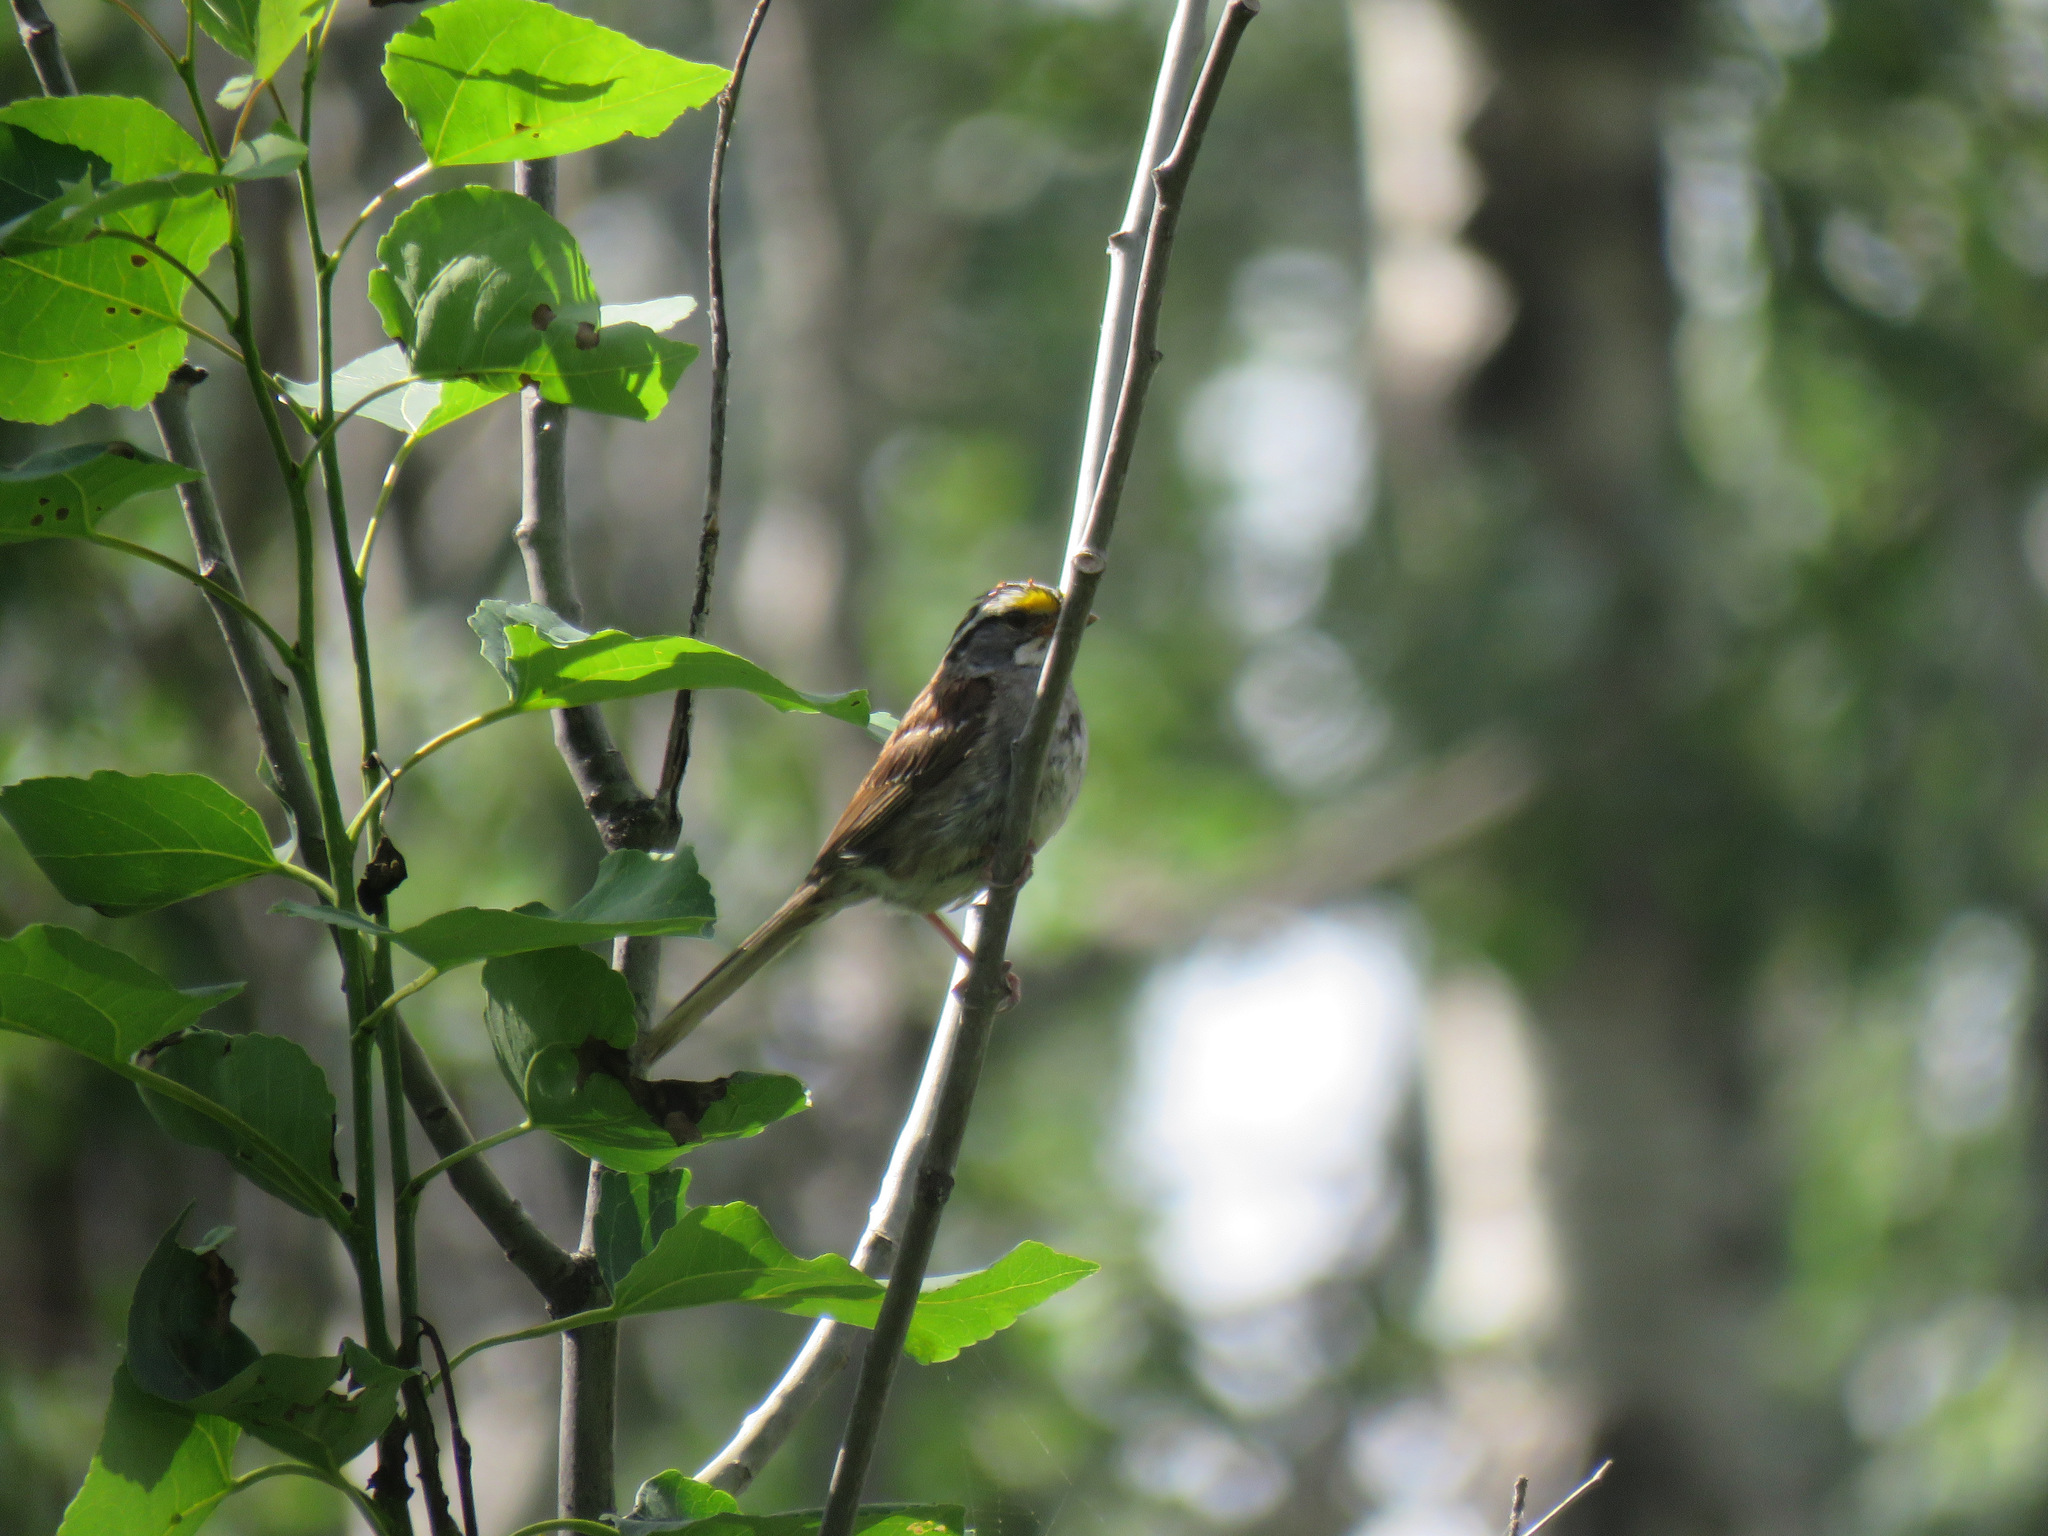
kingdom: Animalia
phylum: Chordata
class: Aves
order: Passeriformes
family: Passerellidae
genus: Zonotrichia
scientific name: Zonotrichia albicollis
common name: White-throated sparrow
